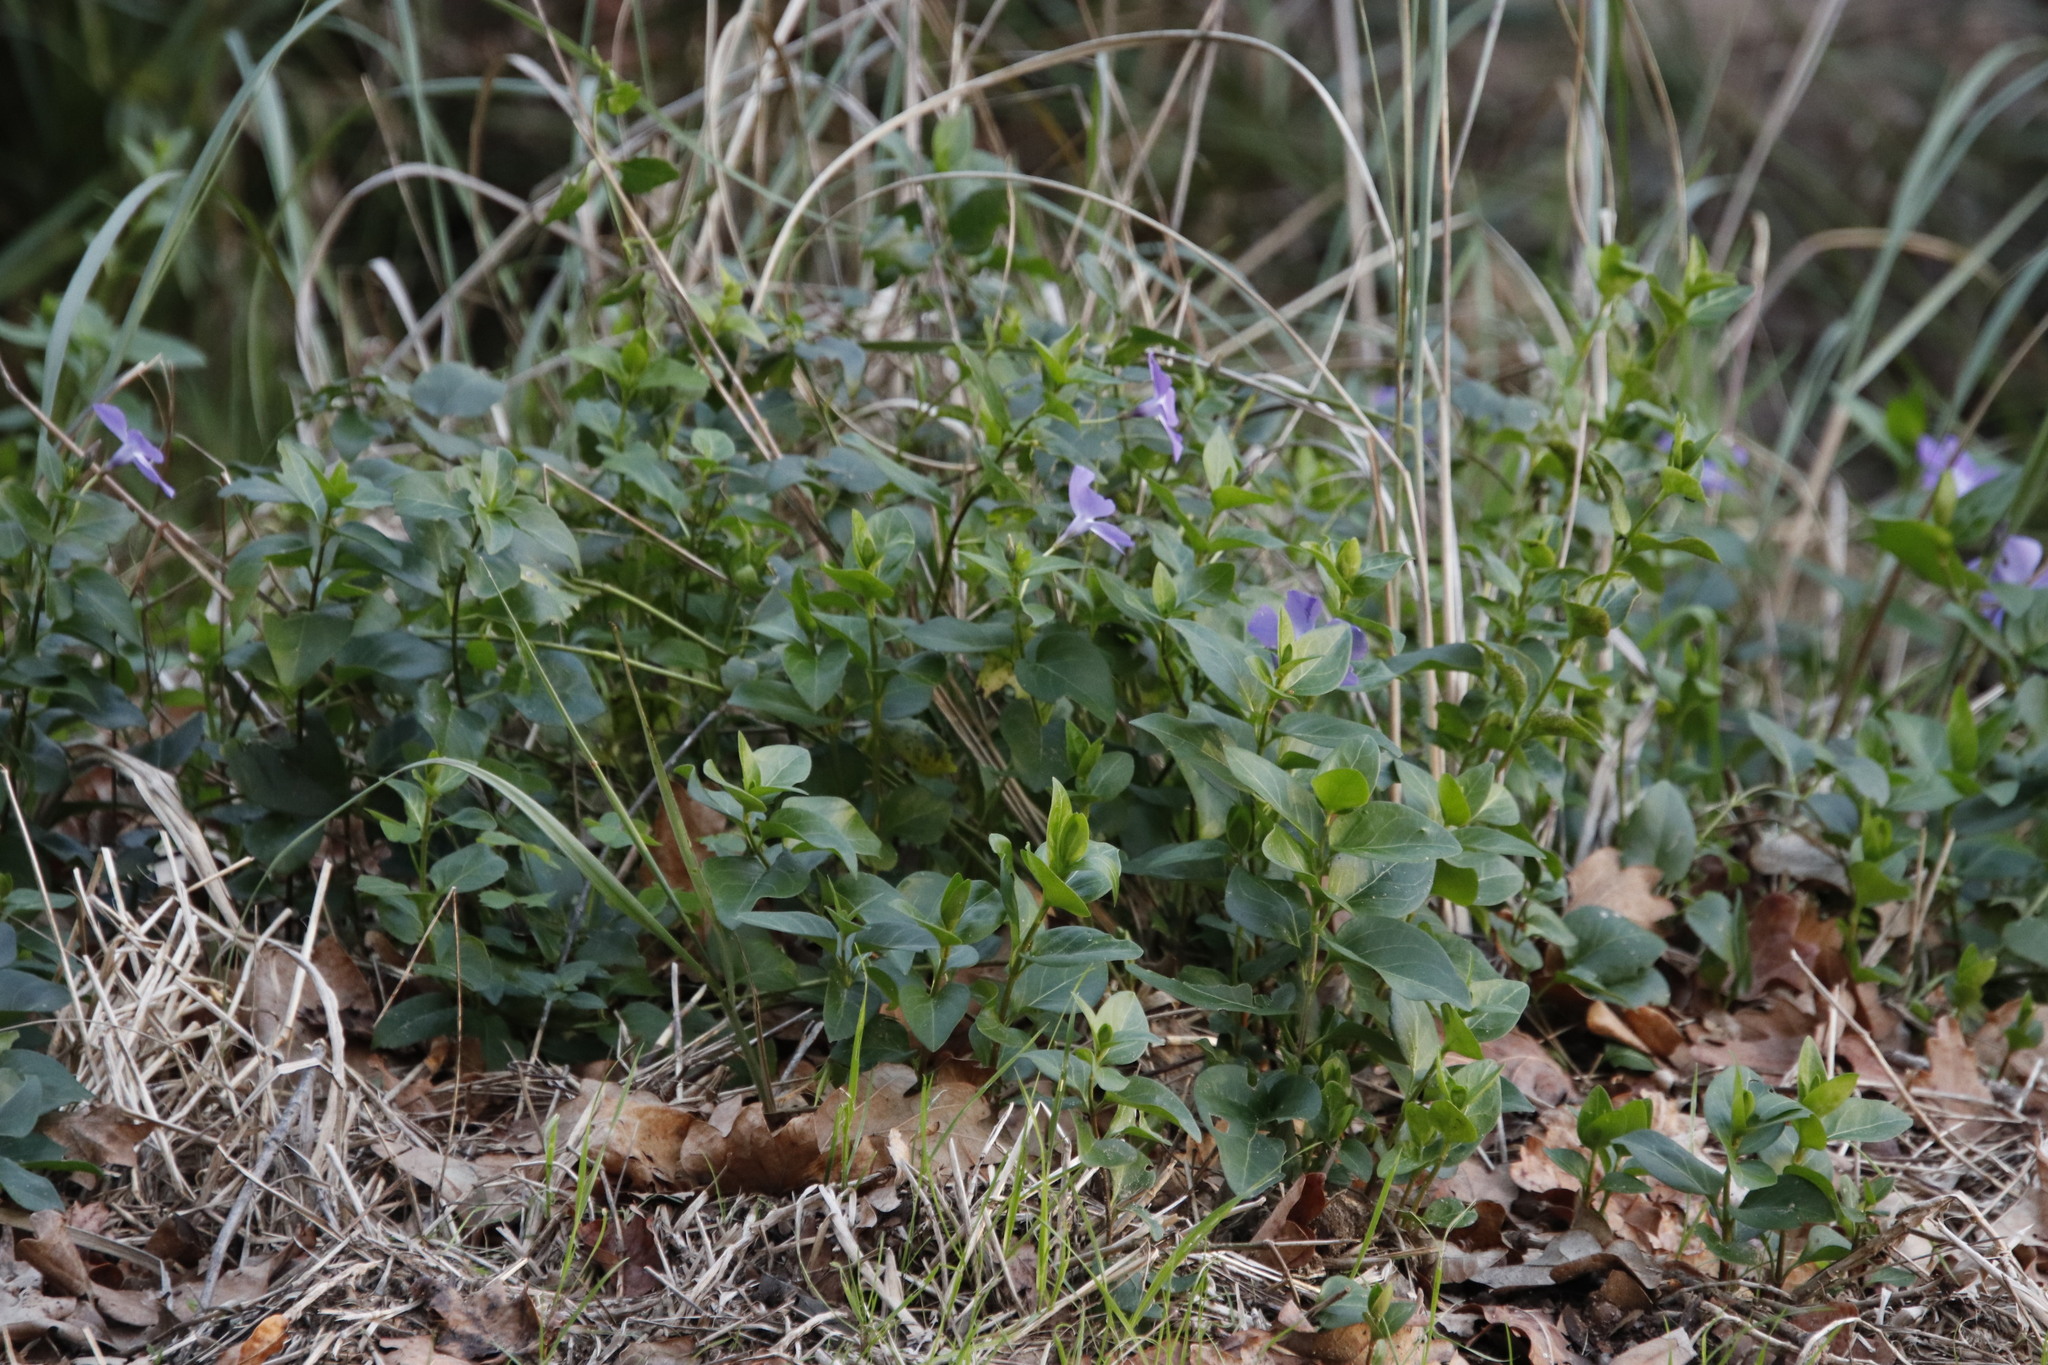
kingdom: Plantae
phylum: Tracheophyta
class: Magnoliopsida
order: Gentianales
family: Apocynaceae
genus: Vinca
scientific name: Vinca major
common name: Greater periwinkle
